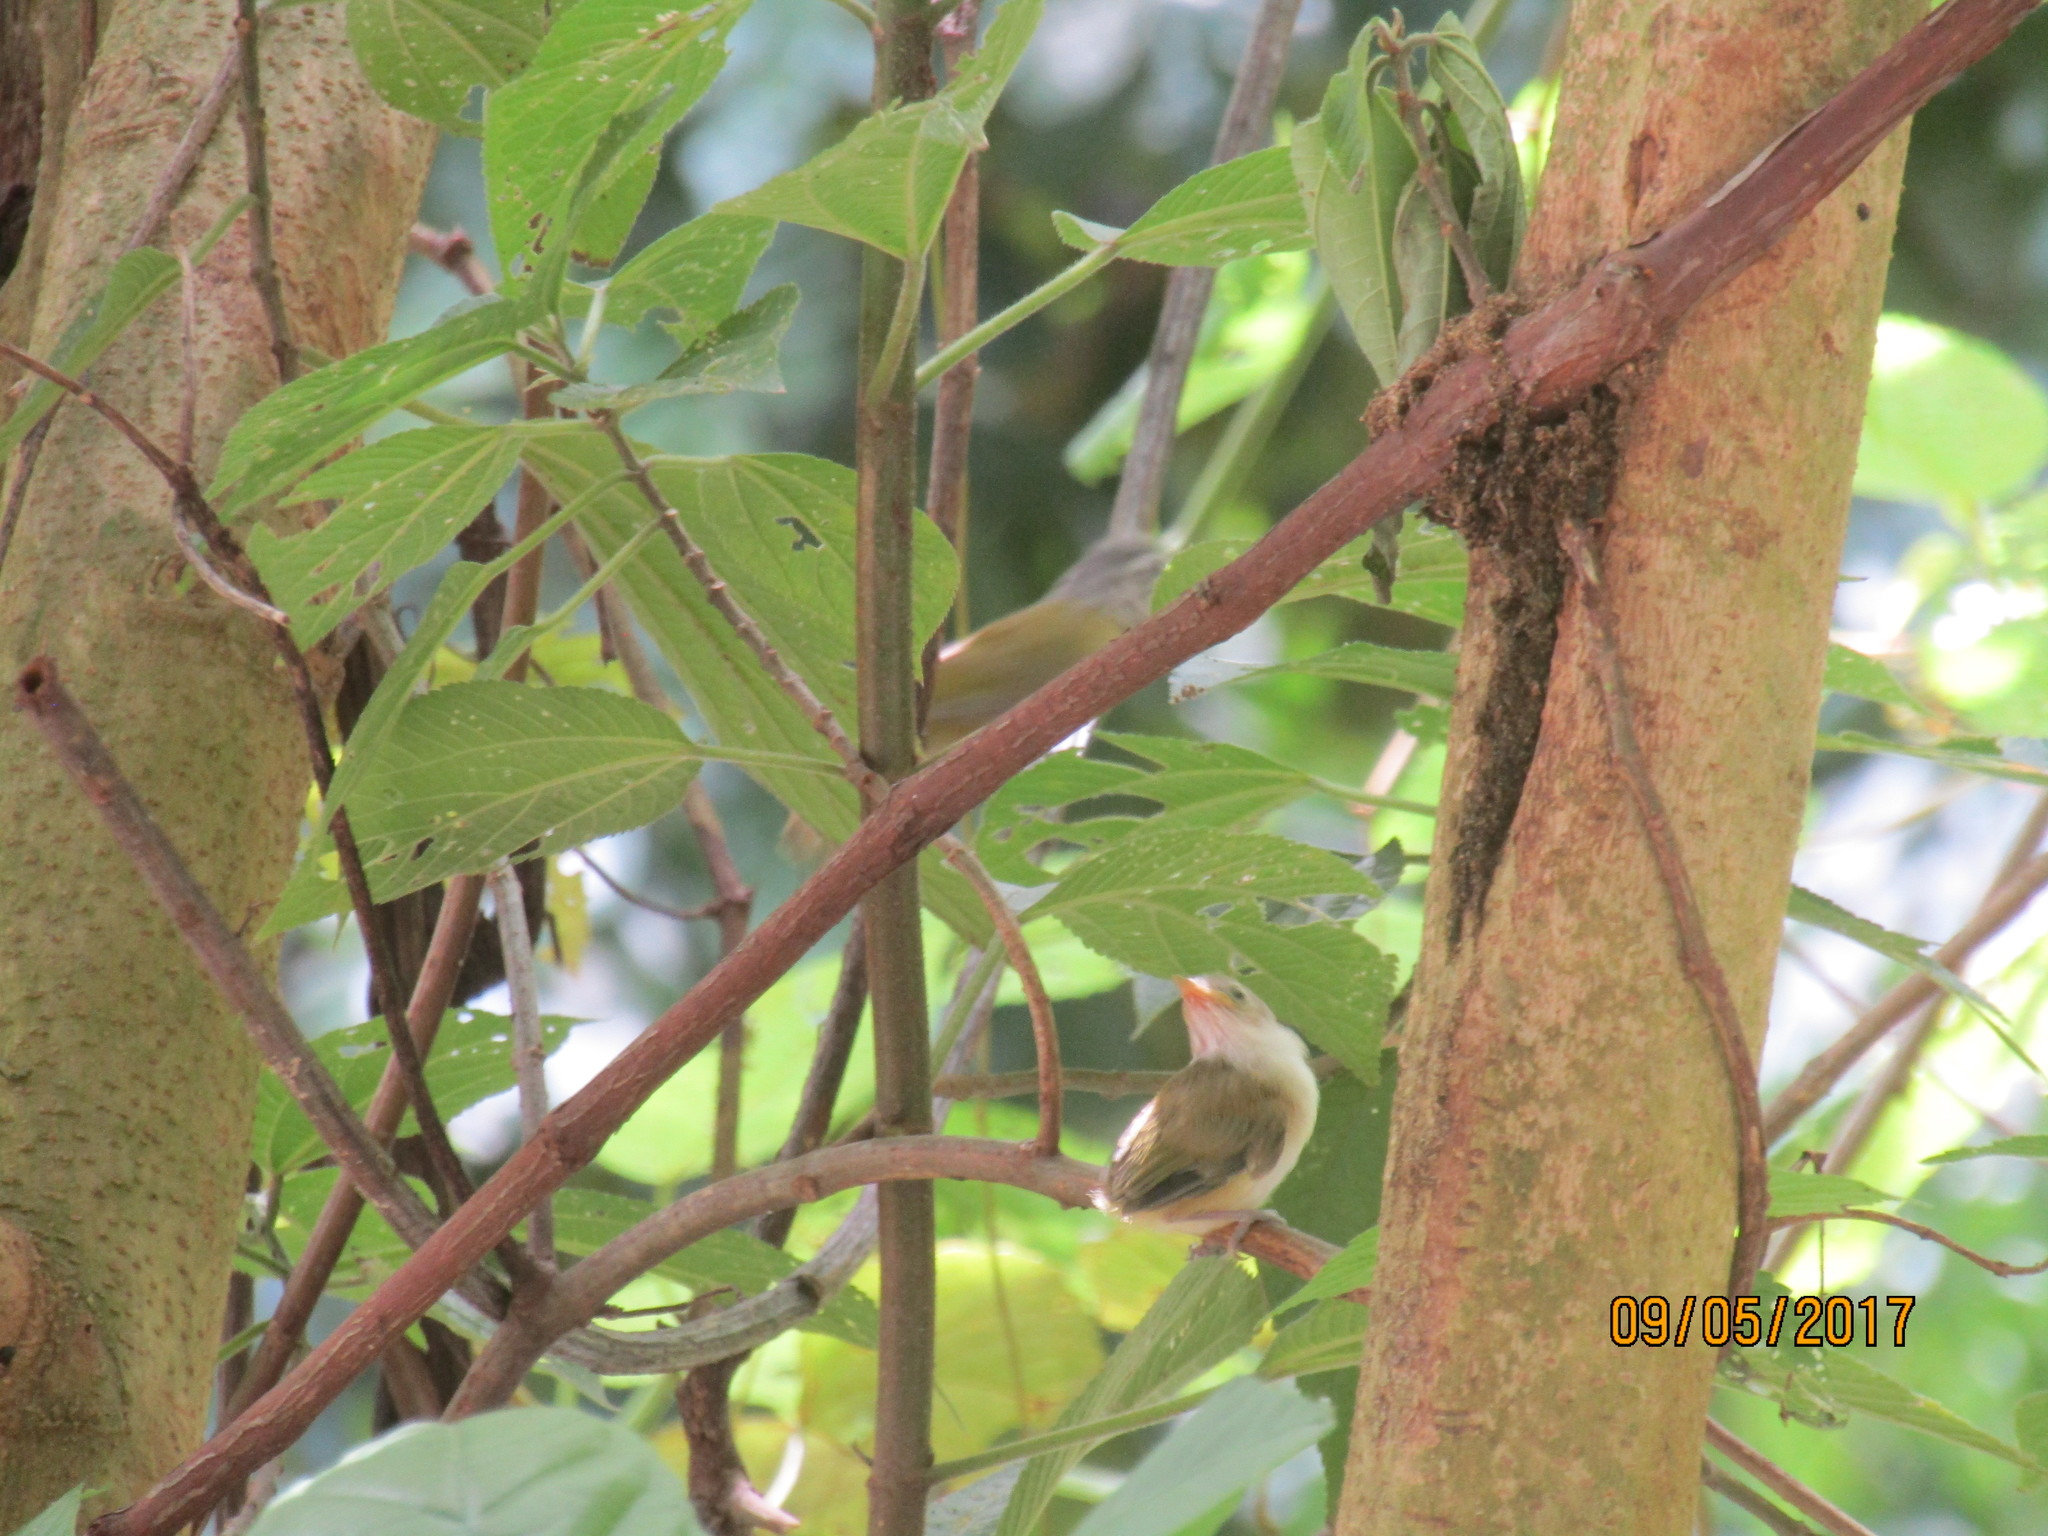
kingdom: Animalia
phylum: Chordata
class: Aves
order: Passeriformes
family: Vireonidae
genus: Hylophilus
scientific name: Hylophilus decurtatus
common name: Lesser greenlet
